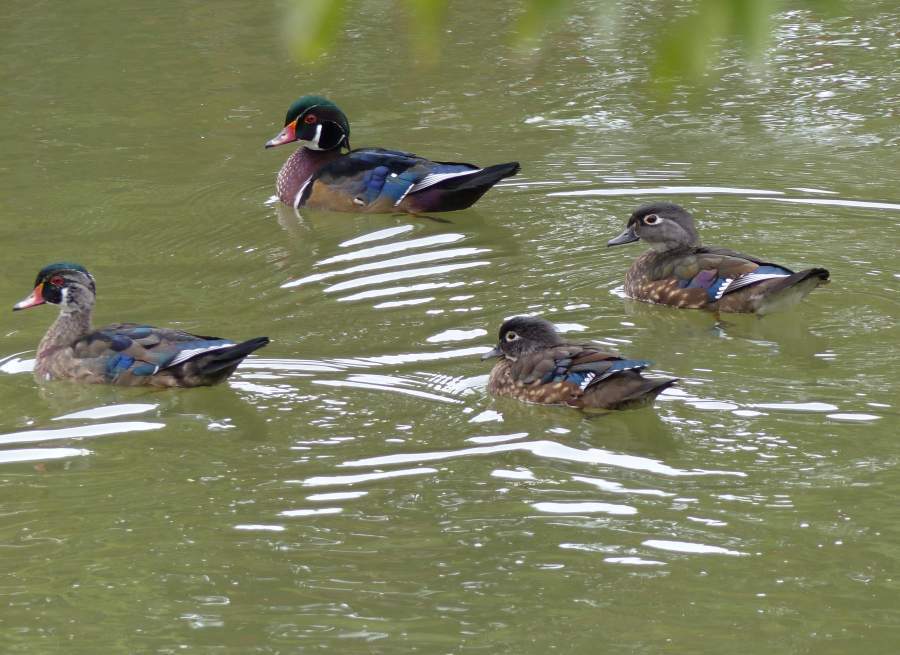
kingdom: Animalia
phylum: Chordata
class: Aves
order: Anseriformes
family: Anatidae
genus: Aix
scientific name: Aix sponsa
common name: Wood duck
